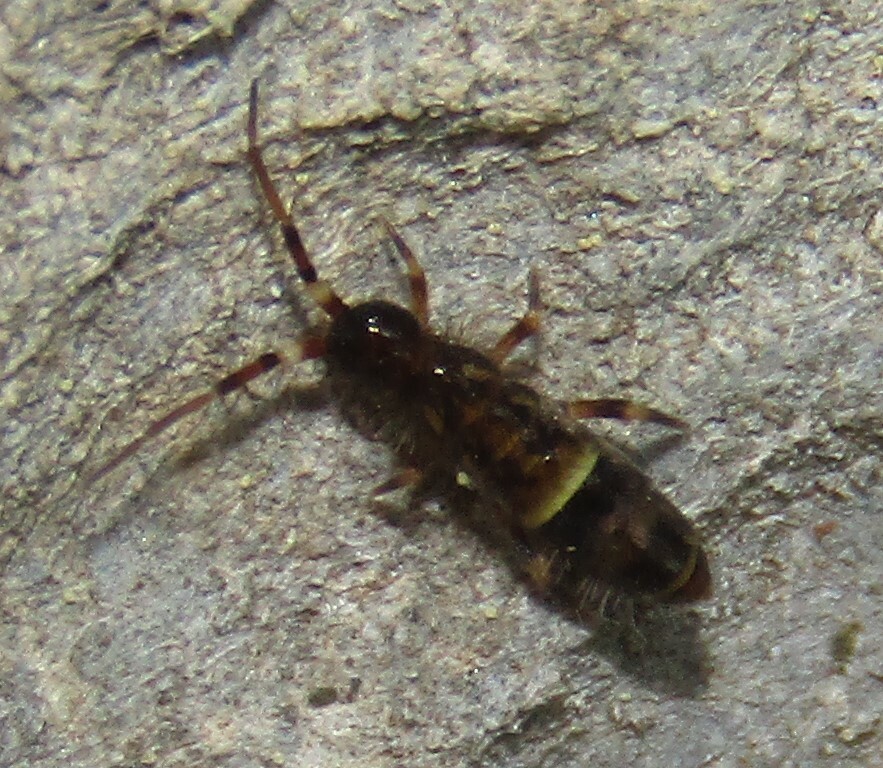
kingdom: Animalia
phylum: Arthropoda
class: Collembola
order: Entomobryomorpha
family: Orchesellidae
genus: Orchesella
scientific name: Orchesella cincta
